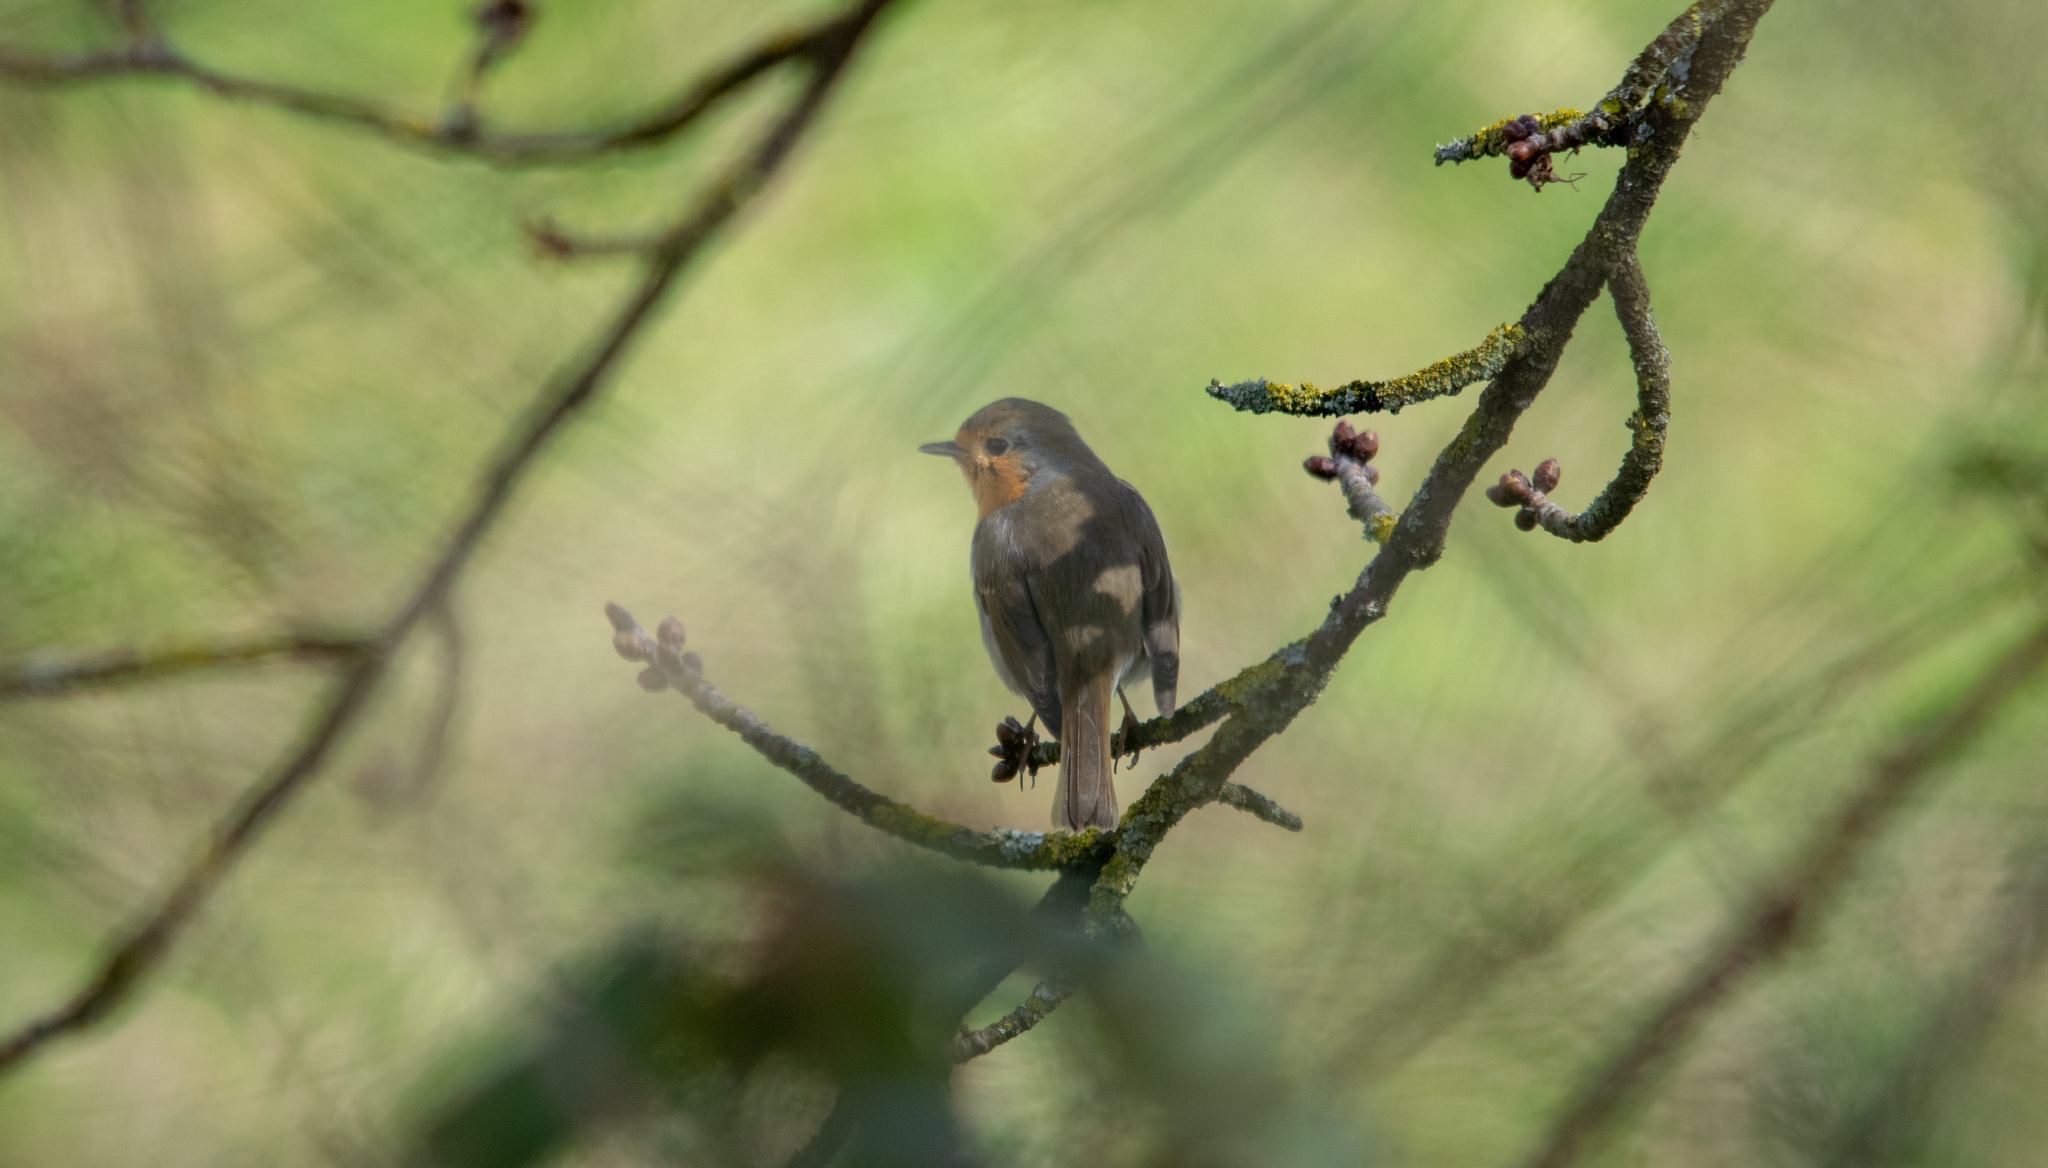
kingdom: Animalia
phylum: Chordata
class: Aves
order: Passeriformes
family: Muscicapidae
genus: Erithacus
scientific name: Erithacus rubecula
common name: European robin
